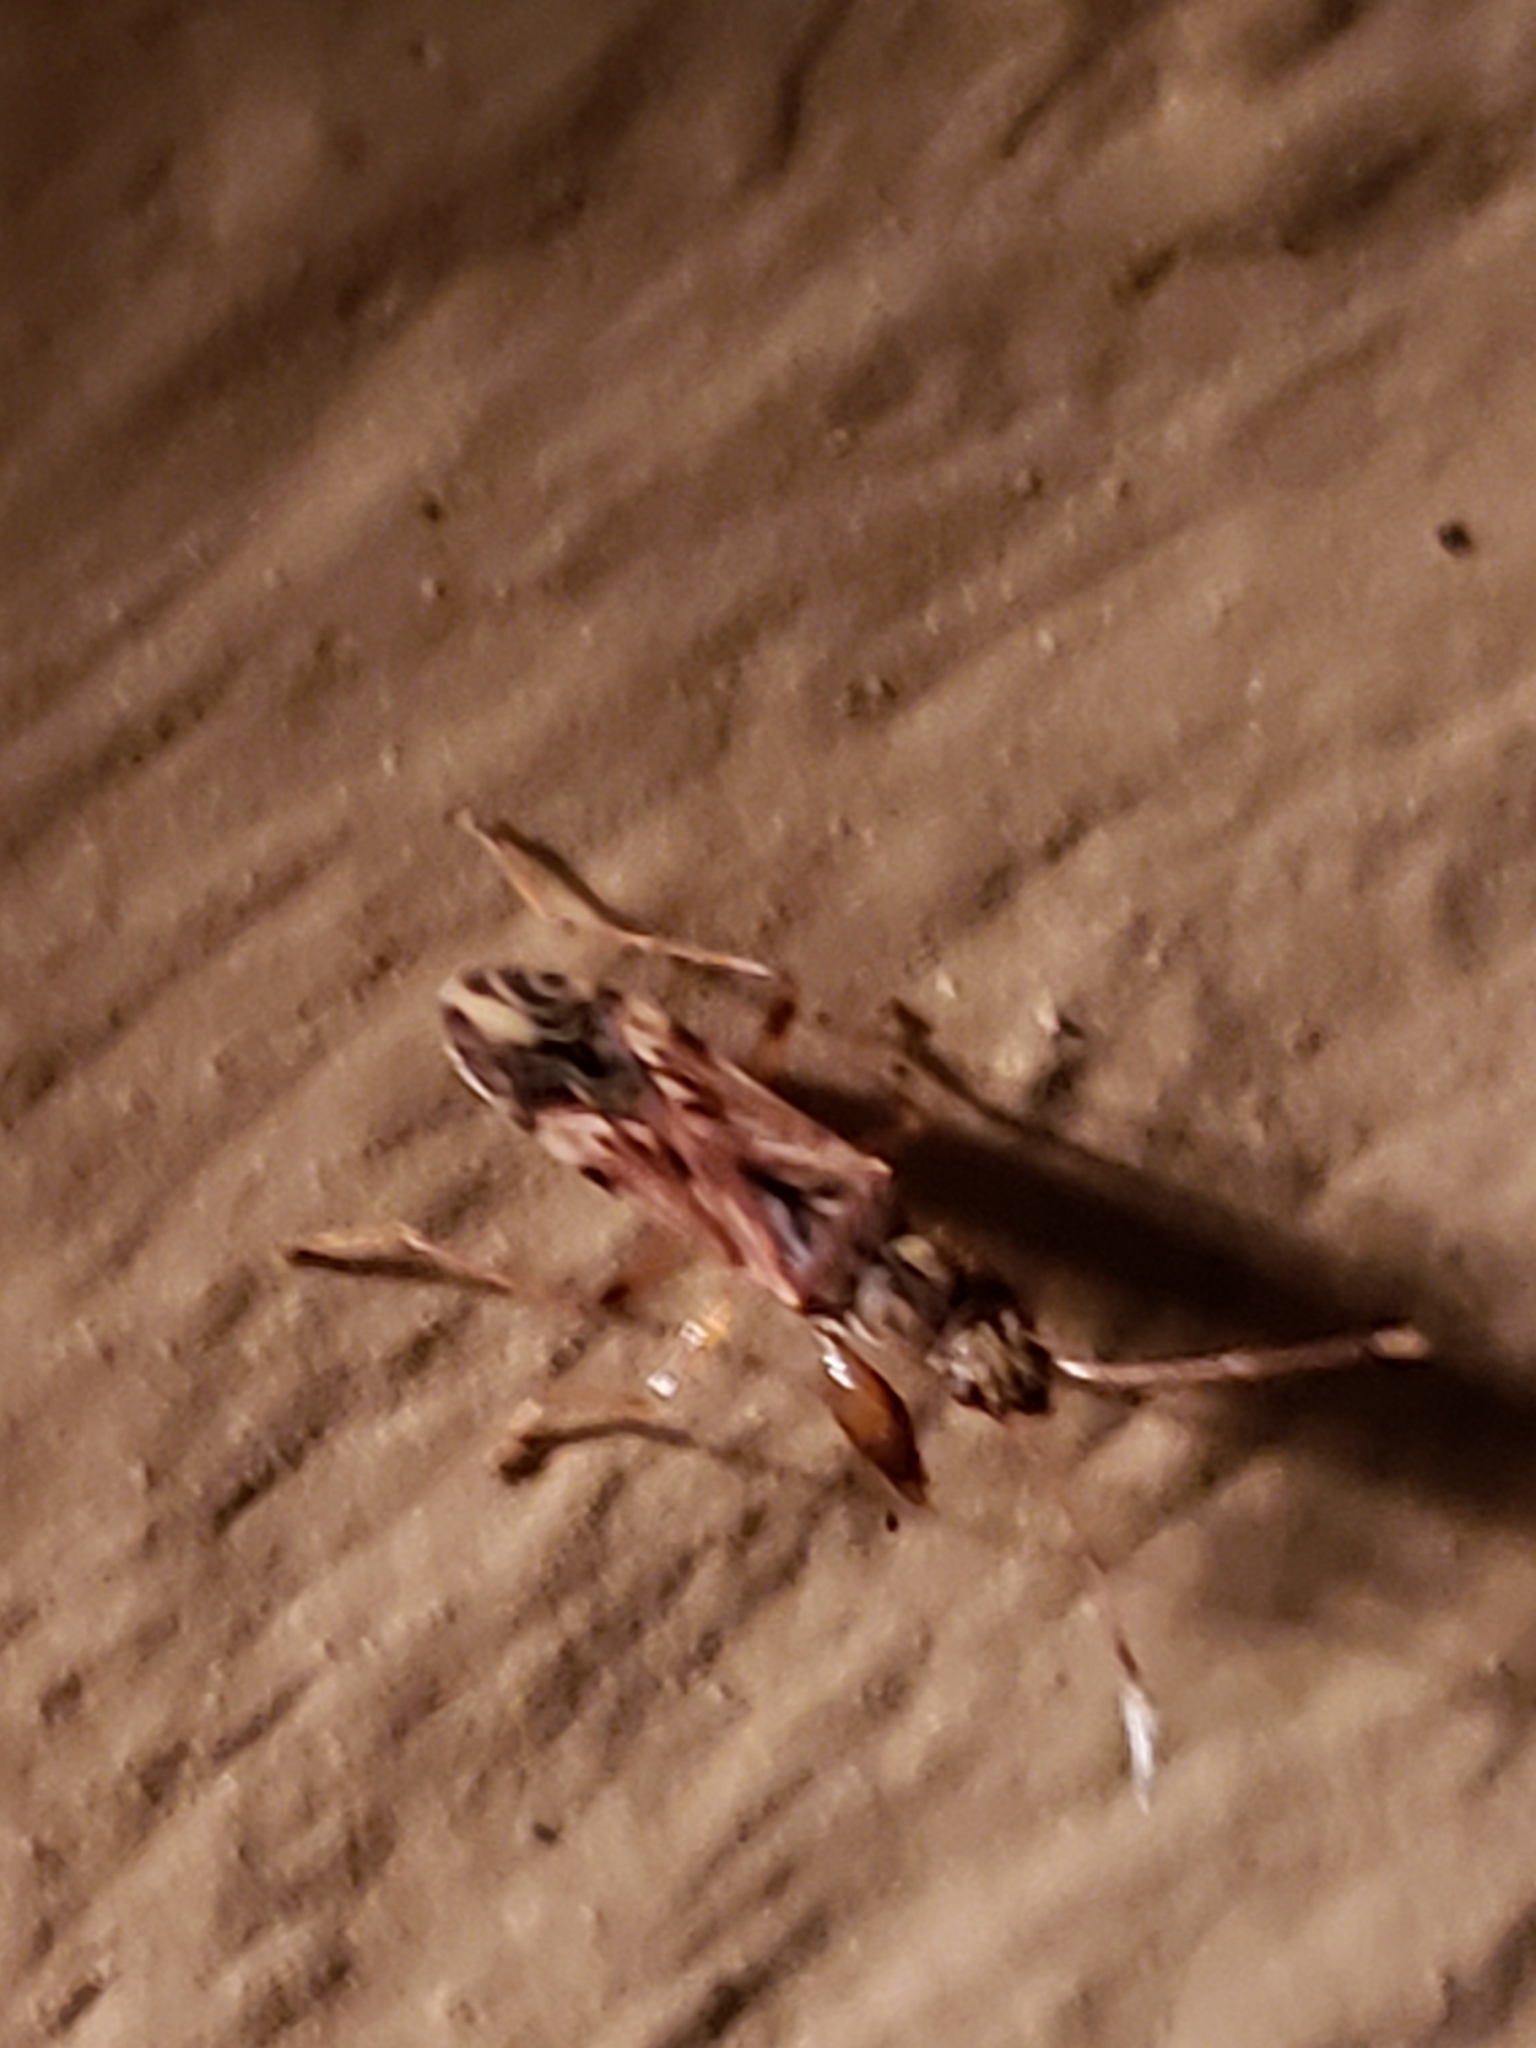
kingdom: Animalia
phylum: Arthropoda
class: Insecta
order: Hemiptera
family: Rhyparochromidae
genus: Neopamera
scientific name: Neopamera albocincta
